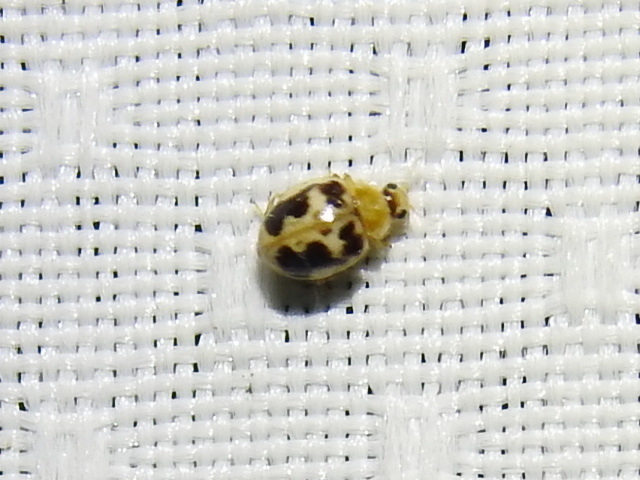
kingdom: Animalia
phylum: Arthropoda
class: Insecta
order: Coleoptera
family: Coccinellidae
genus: Psyllobora
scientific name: Psyllobora renifer
